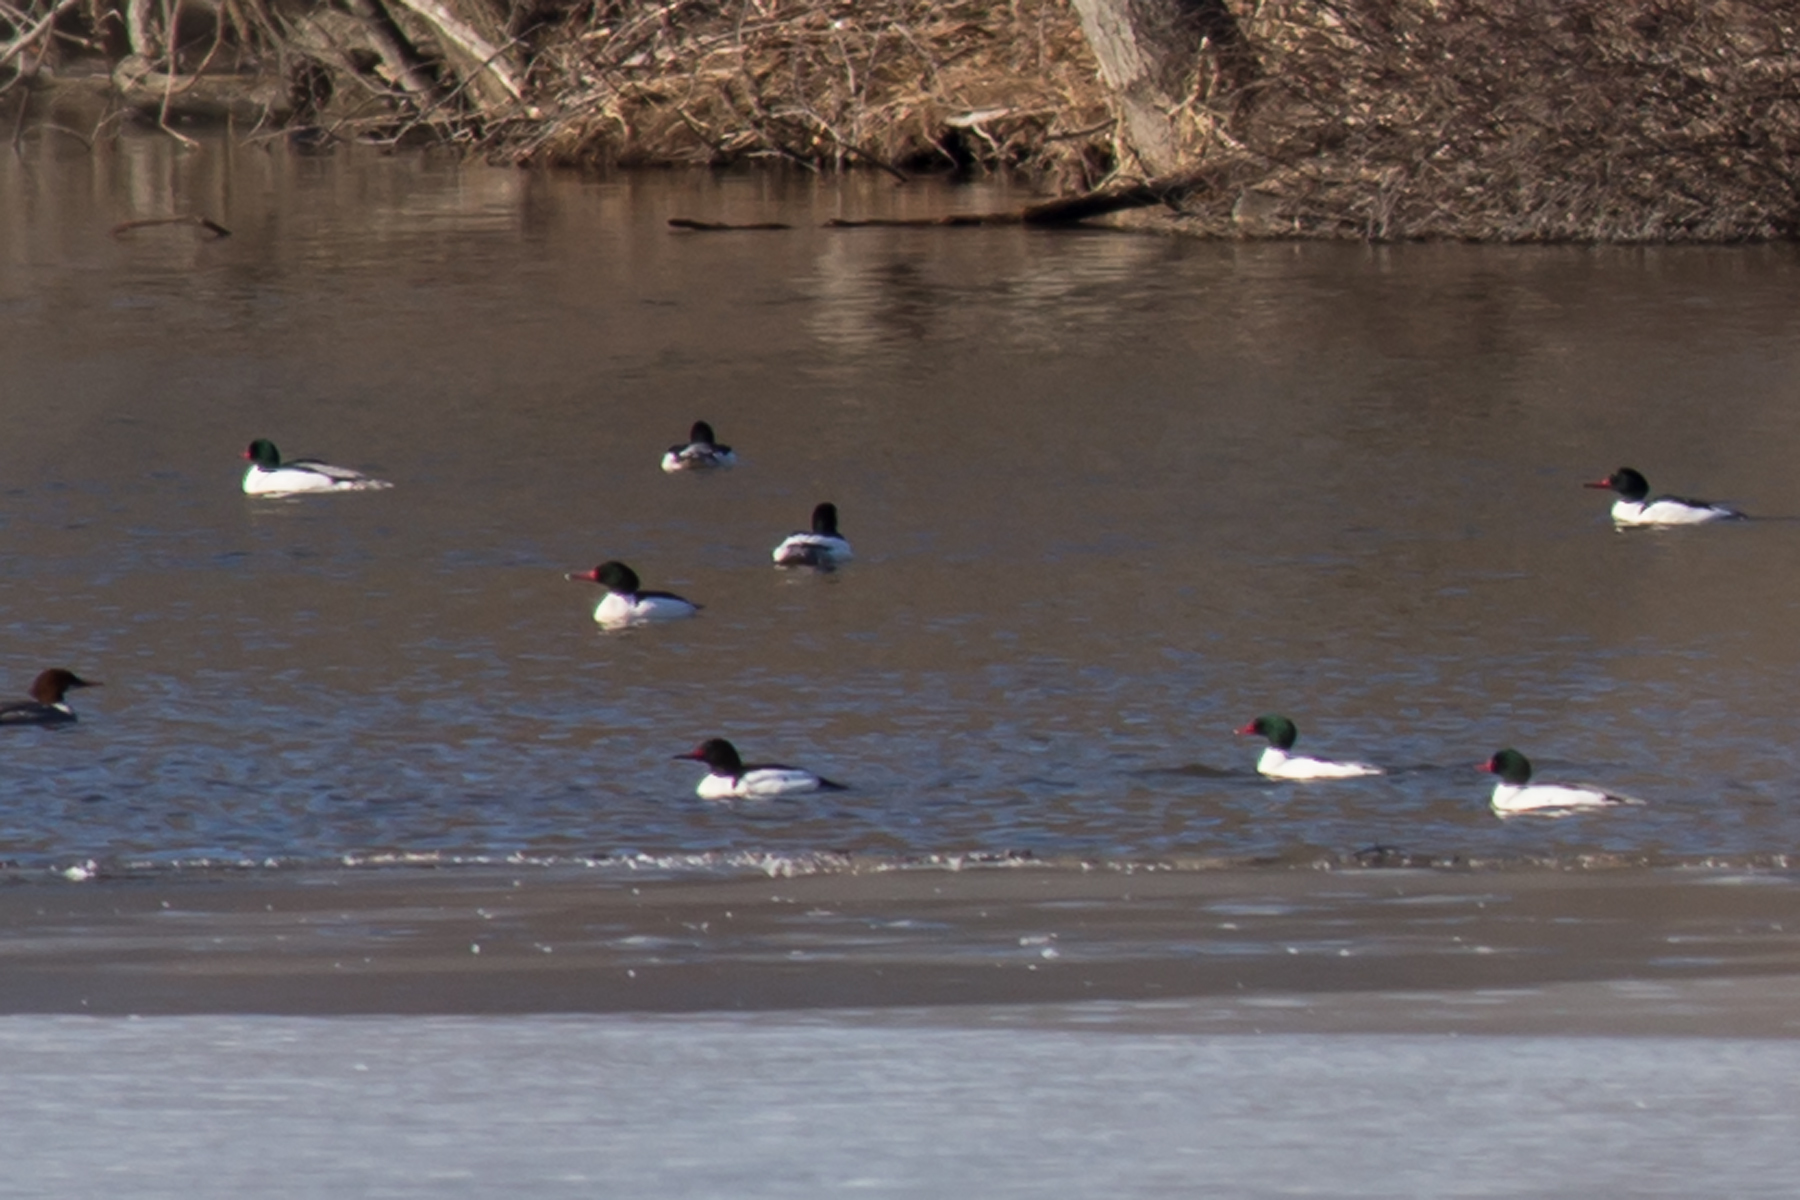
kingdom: Animalia
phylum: Chordata
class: Aves
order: Anseriformes
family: Anatidae
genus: Mergus
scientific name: Mergus merganser
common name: Common merganser
